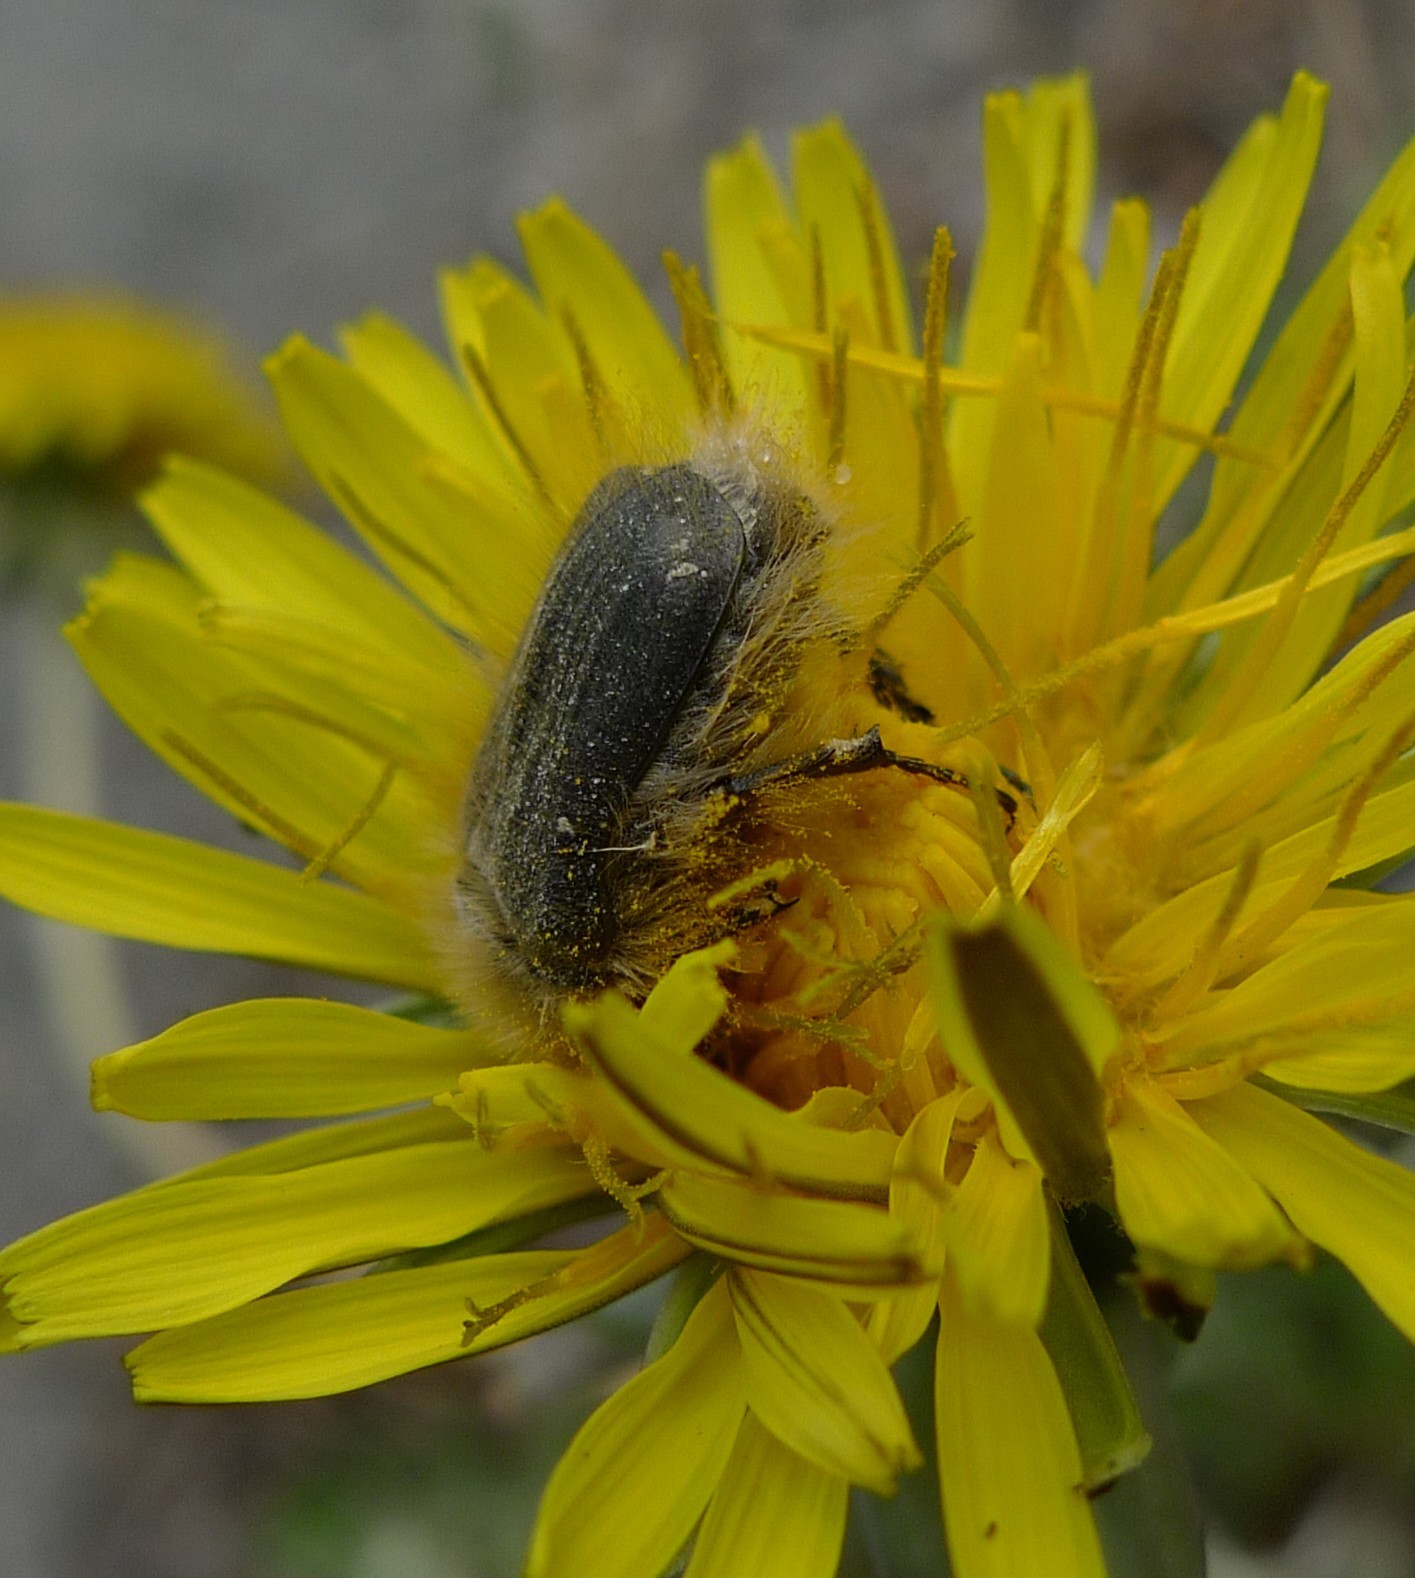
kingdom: Animalia
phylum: Arthropoda
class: Insecta
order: Coleoptera
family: Scarabaeidae
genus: Tropinota
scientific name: Tropinota hirta
